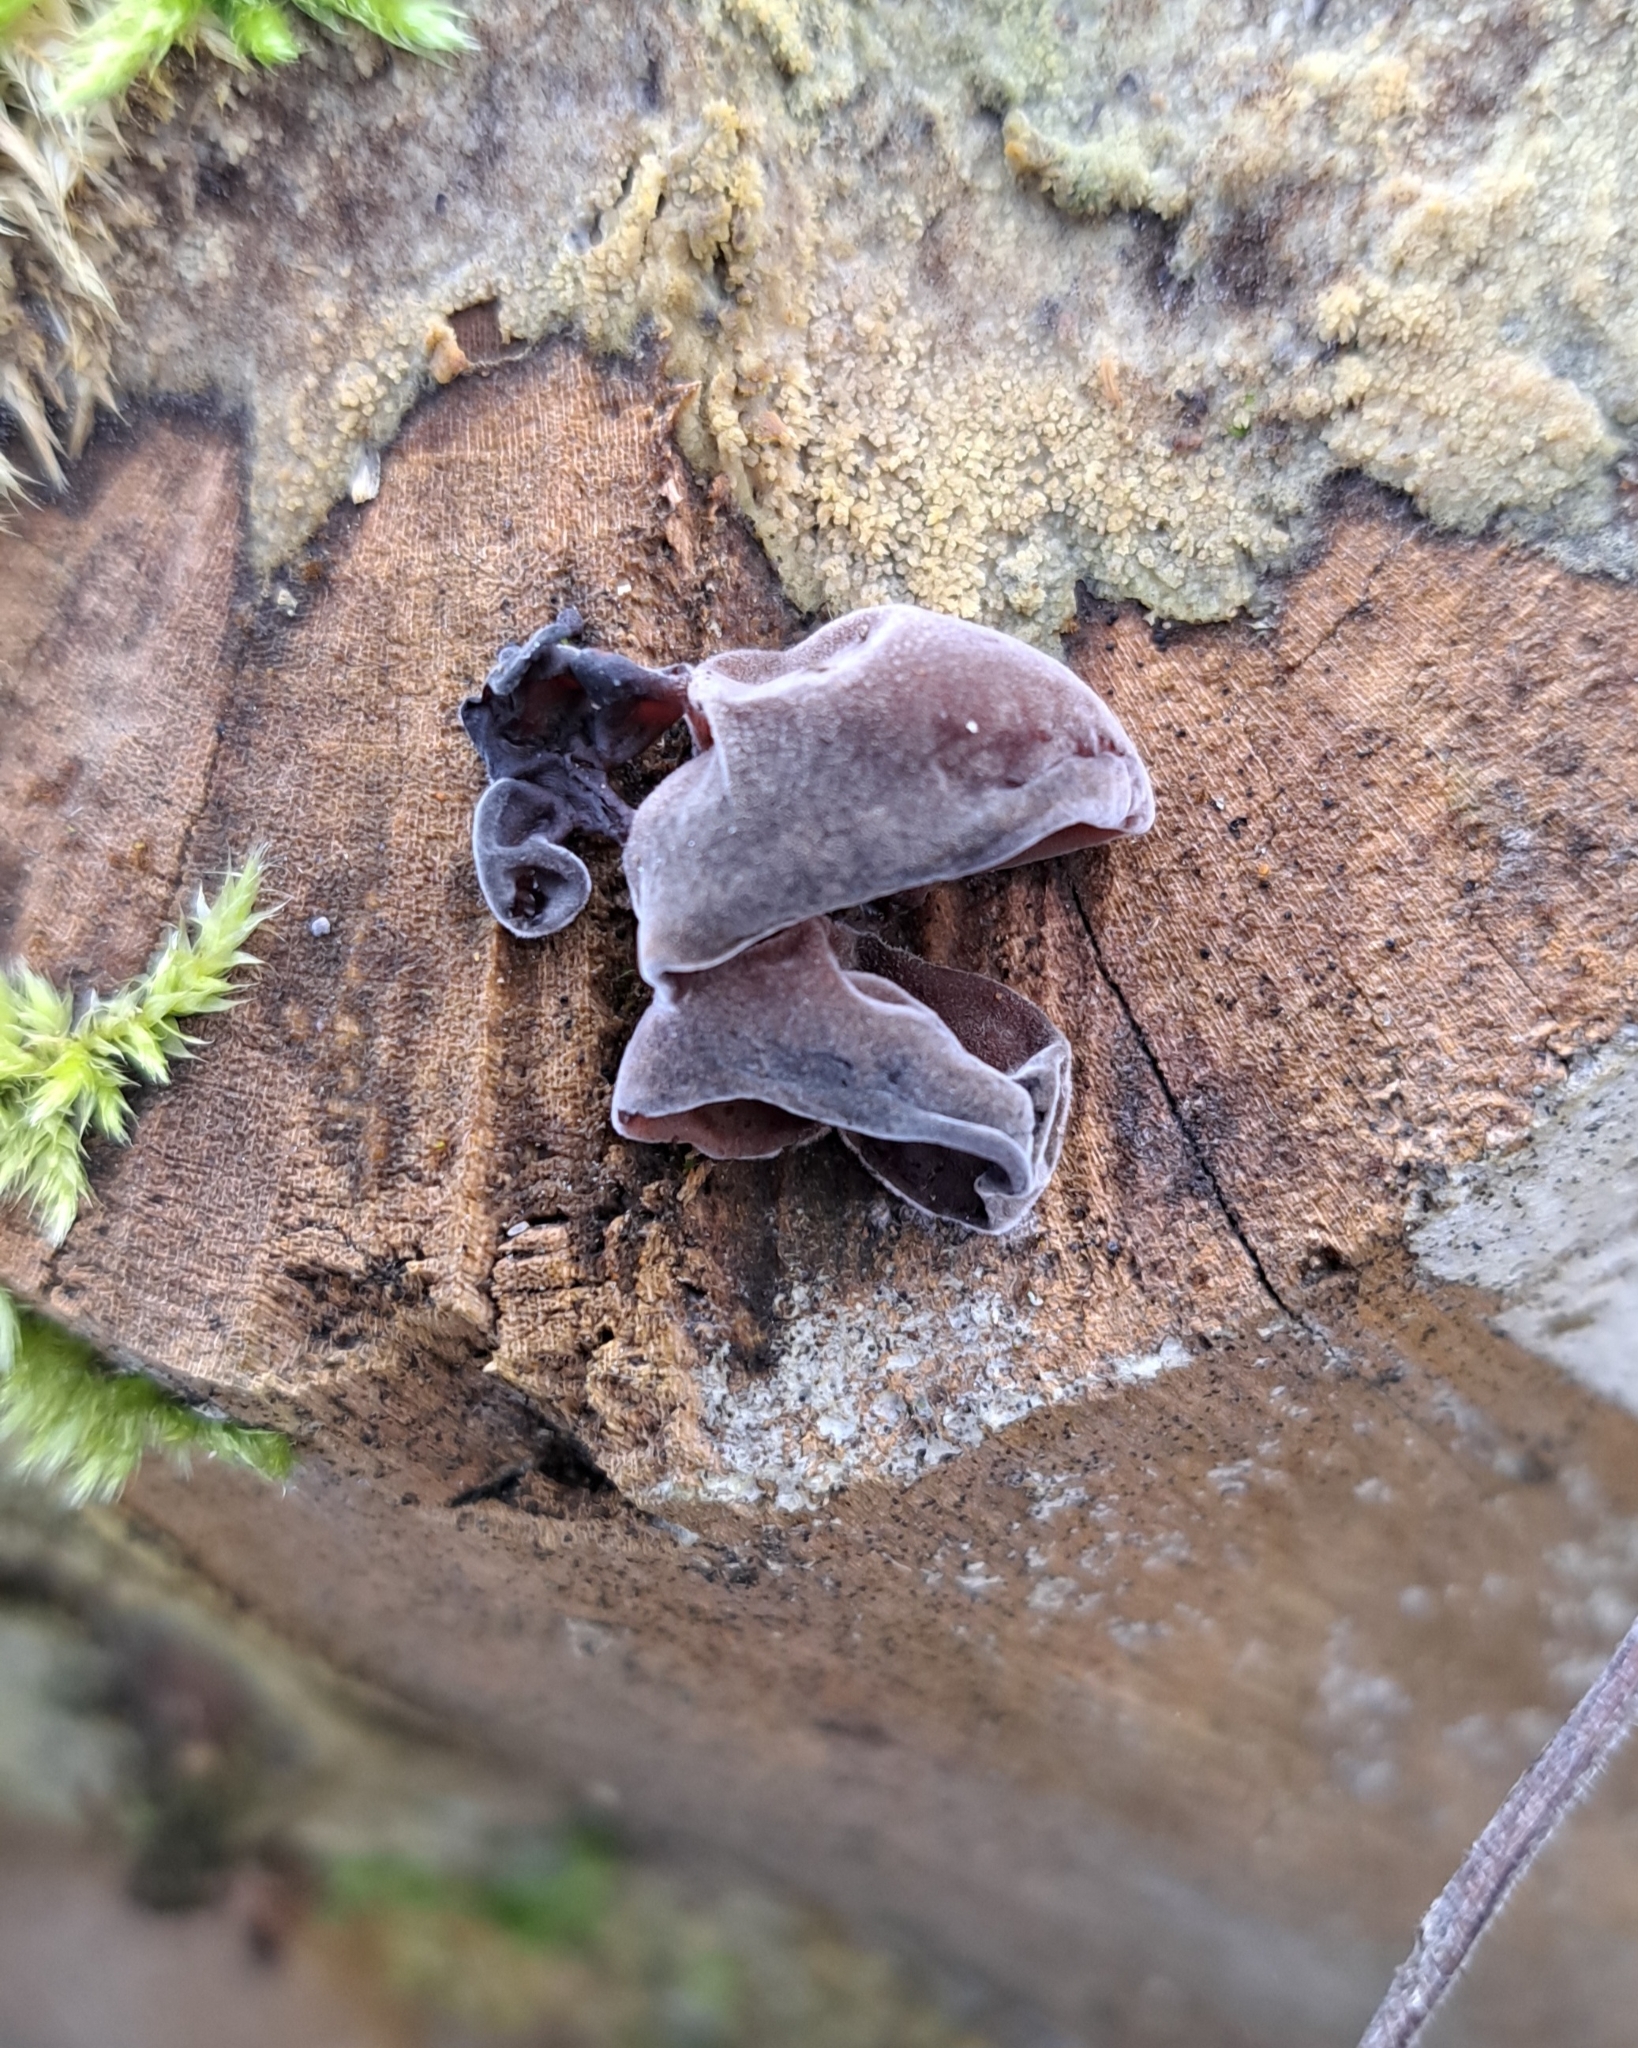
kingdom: Fungi
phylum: Basidiomycota
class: Agaricomycetes
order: Auriculariales
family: Auriculariaceae
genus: Auricularia
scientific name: Auricularia auricula-judae
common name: Jelly ear
